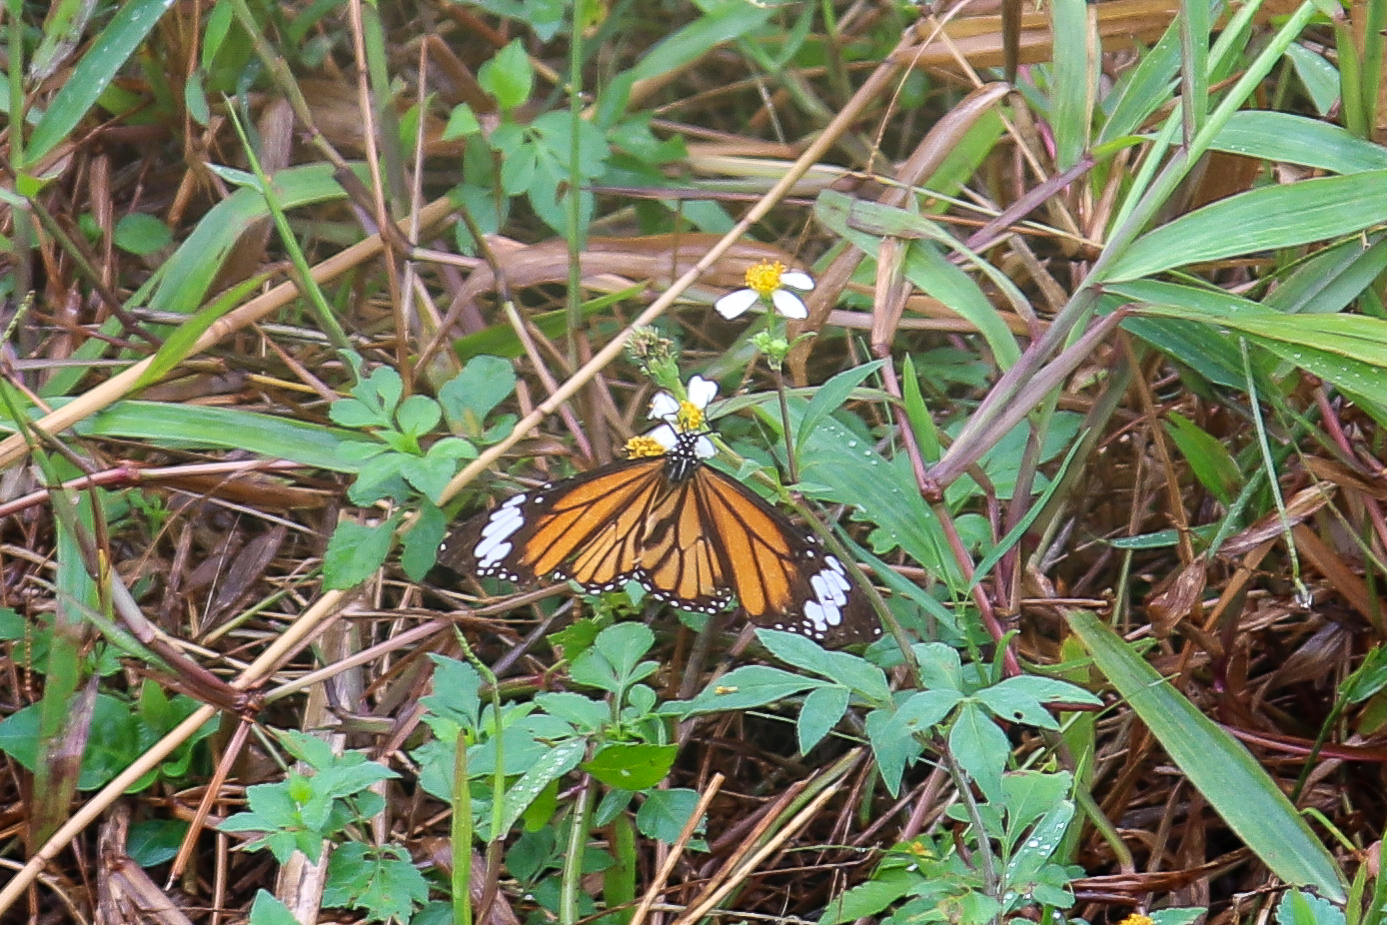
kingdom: Animalia
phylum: Arthropoda
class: Insecta
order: Lepidoptera
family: Nymphalidae
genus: Danaus
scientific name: Danaus genutia
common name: Common tiger butterfly
